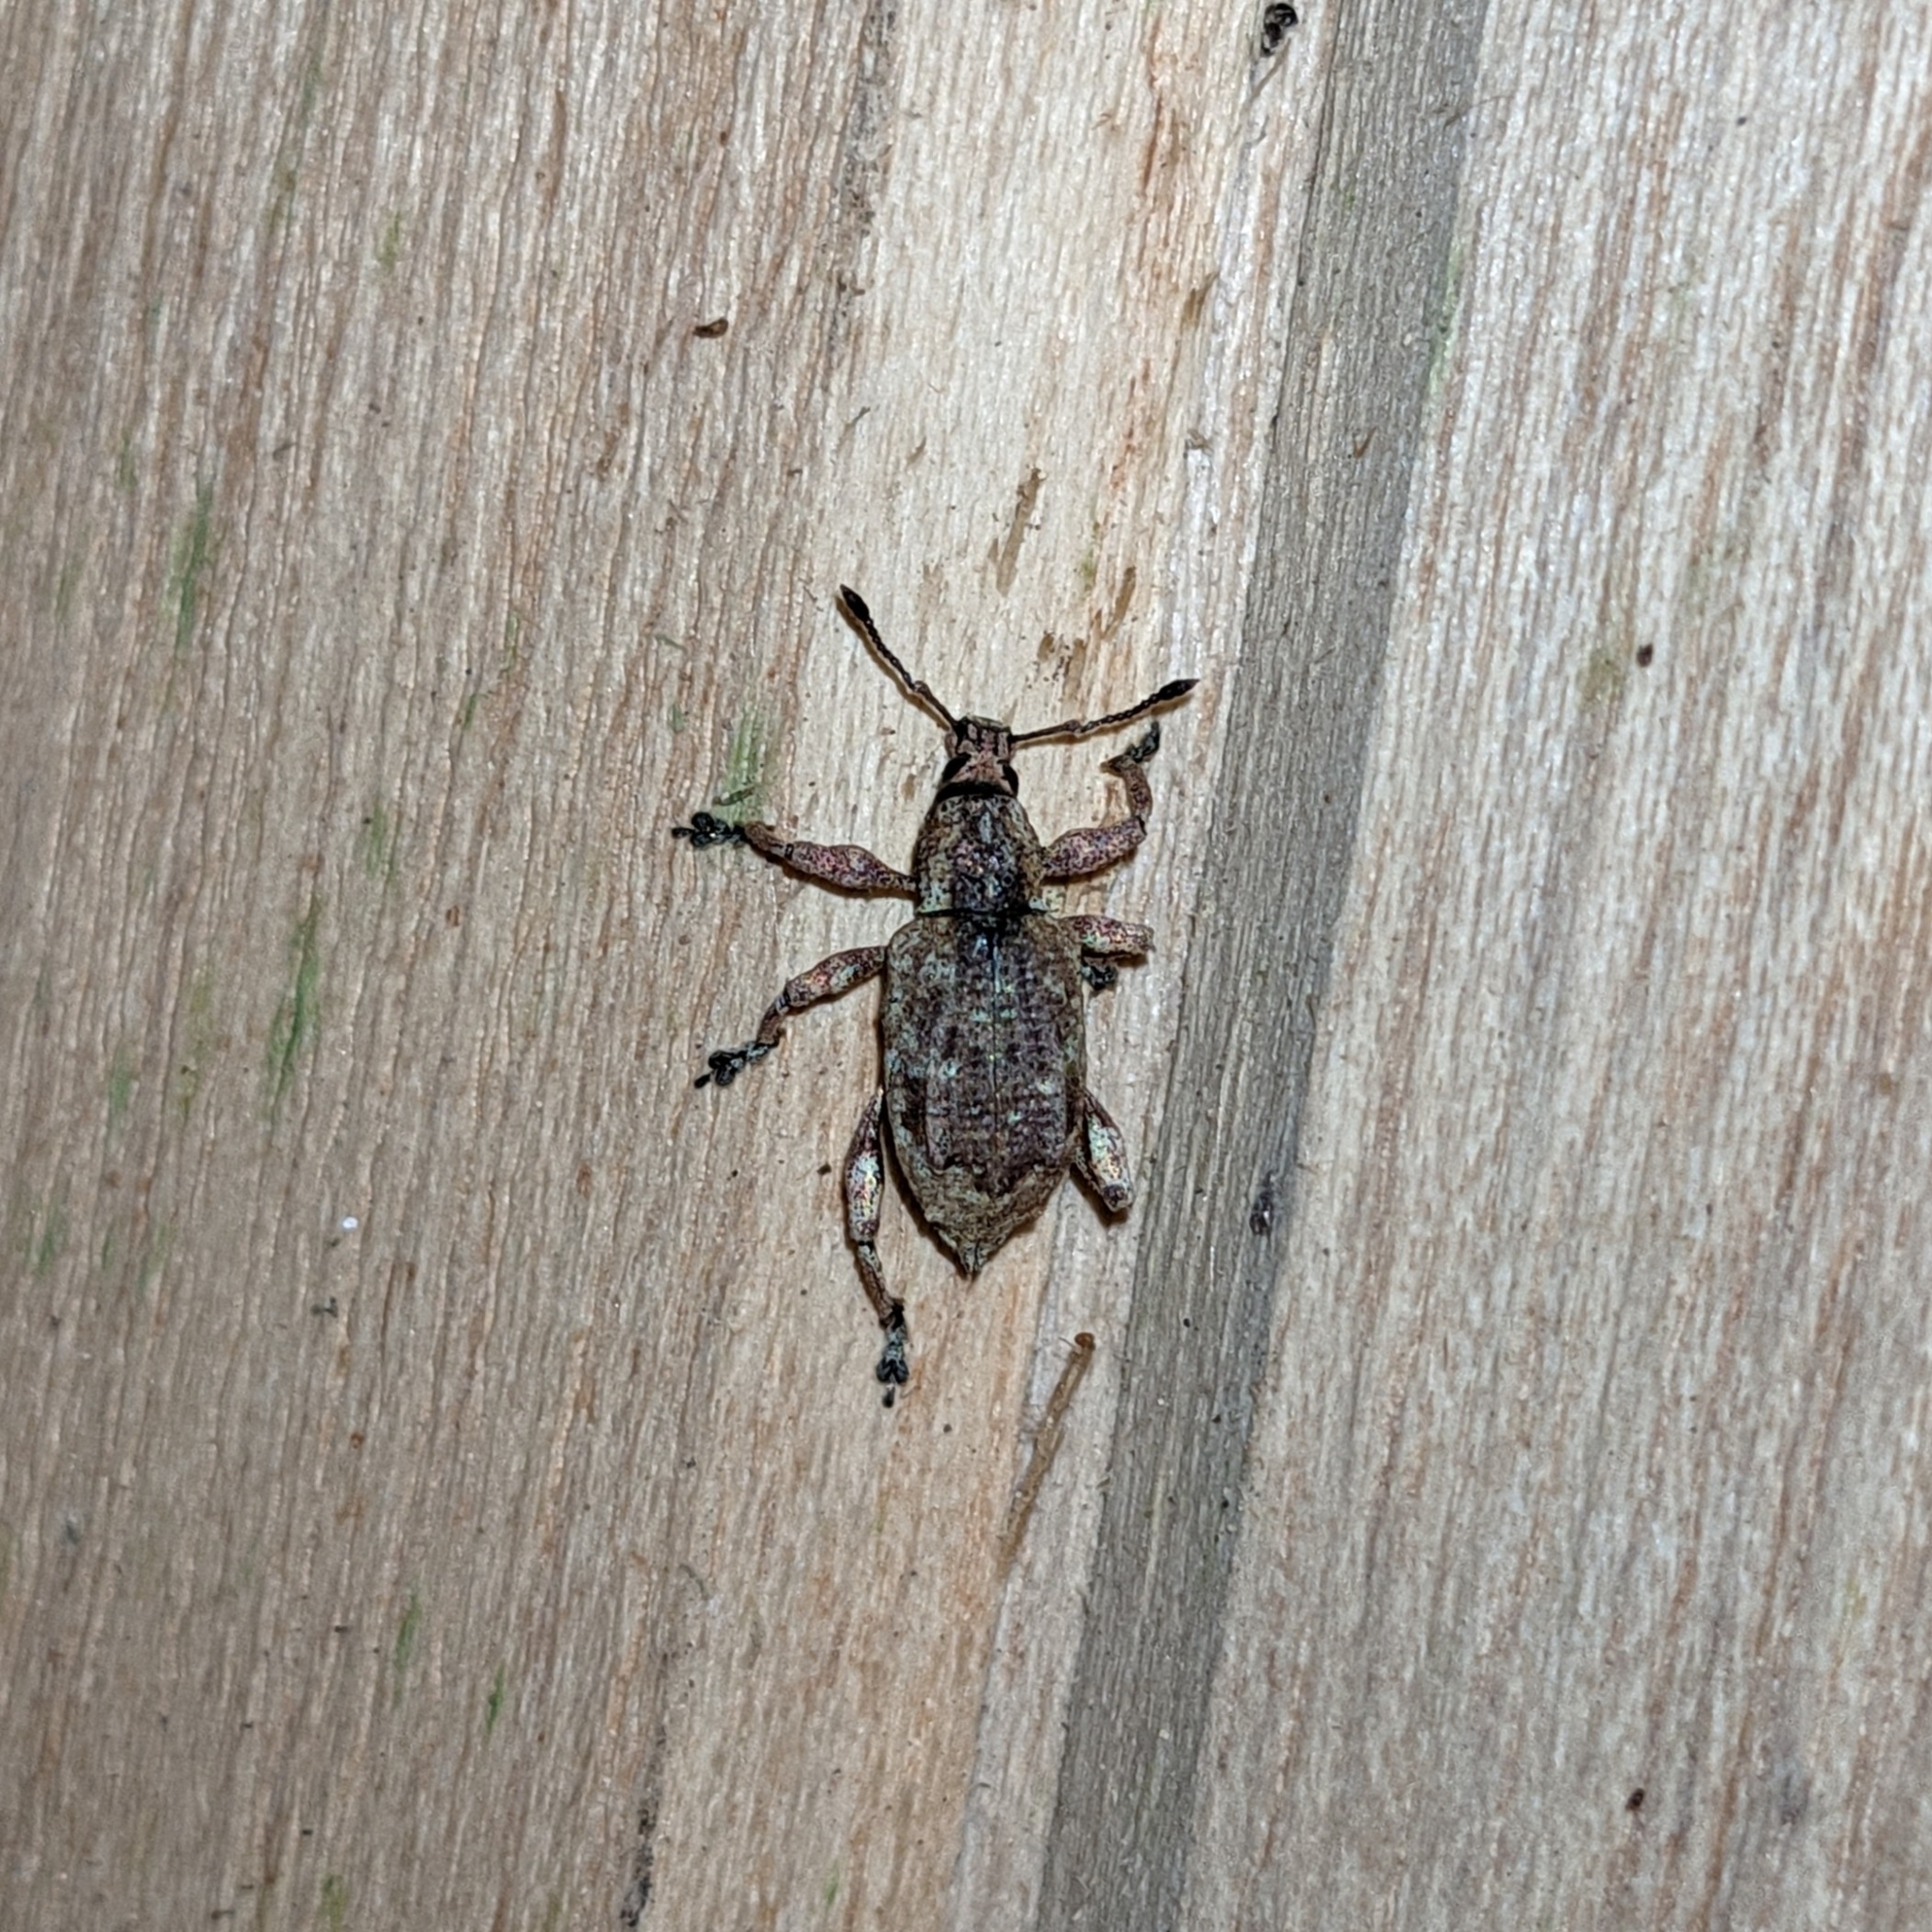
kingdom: Animalia
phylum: Arthropoda
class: Insecta
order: Coleoptera
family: Curculionidae
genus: Claeoteges
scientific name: Claeoteges virosa
